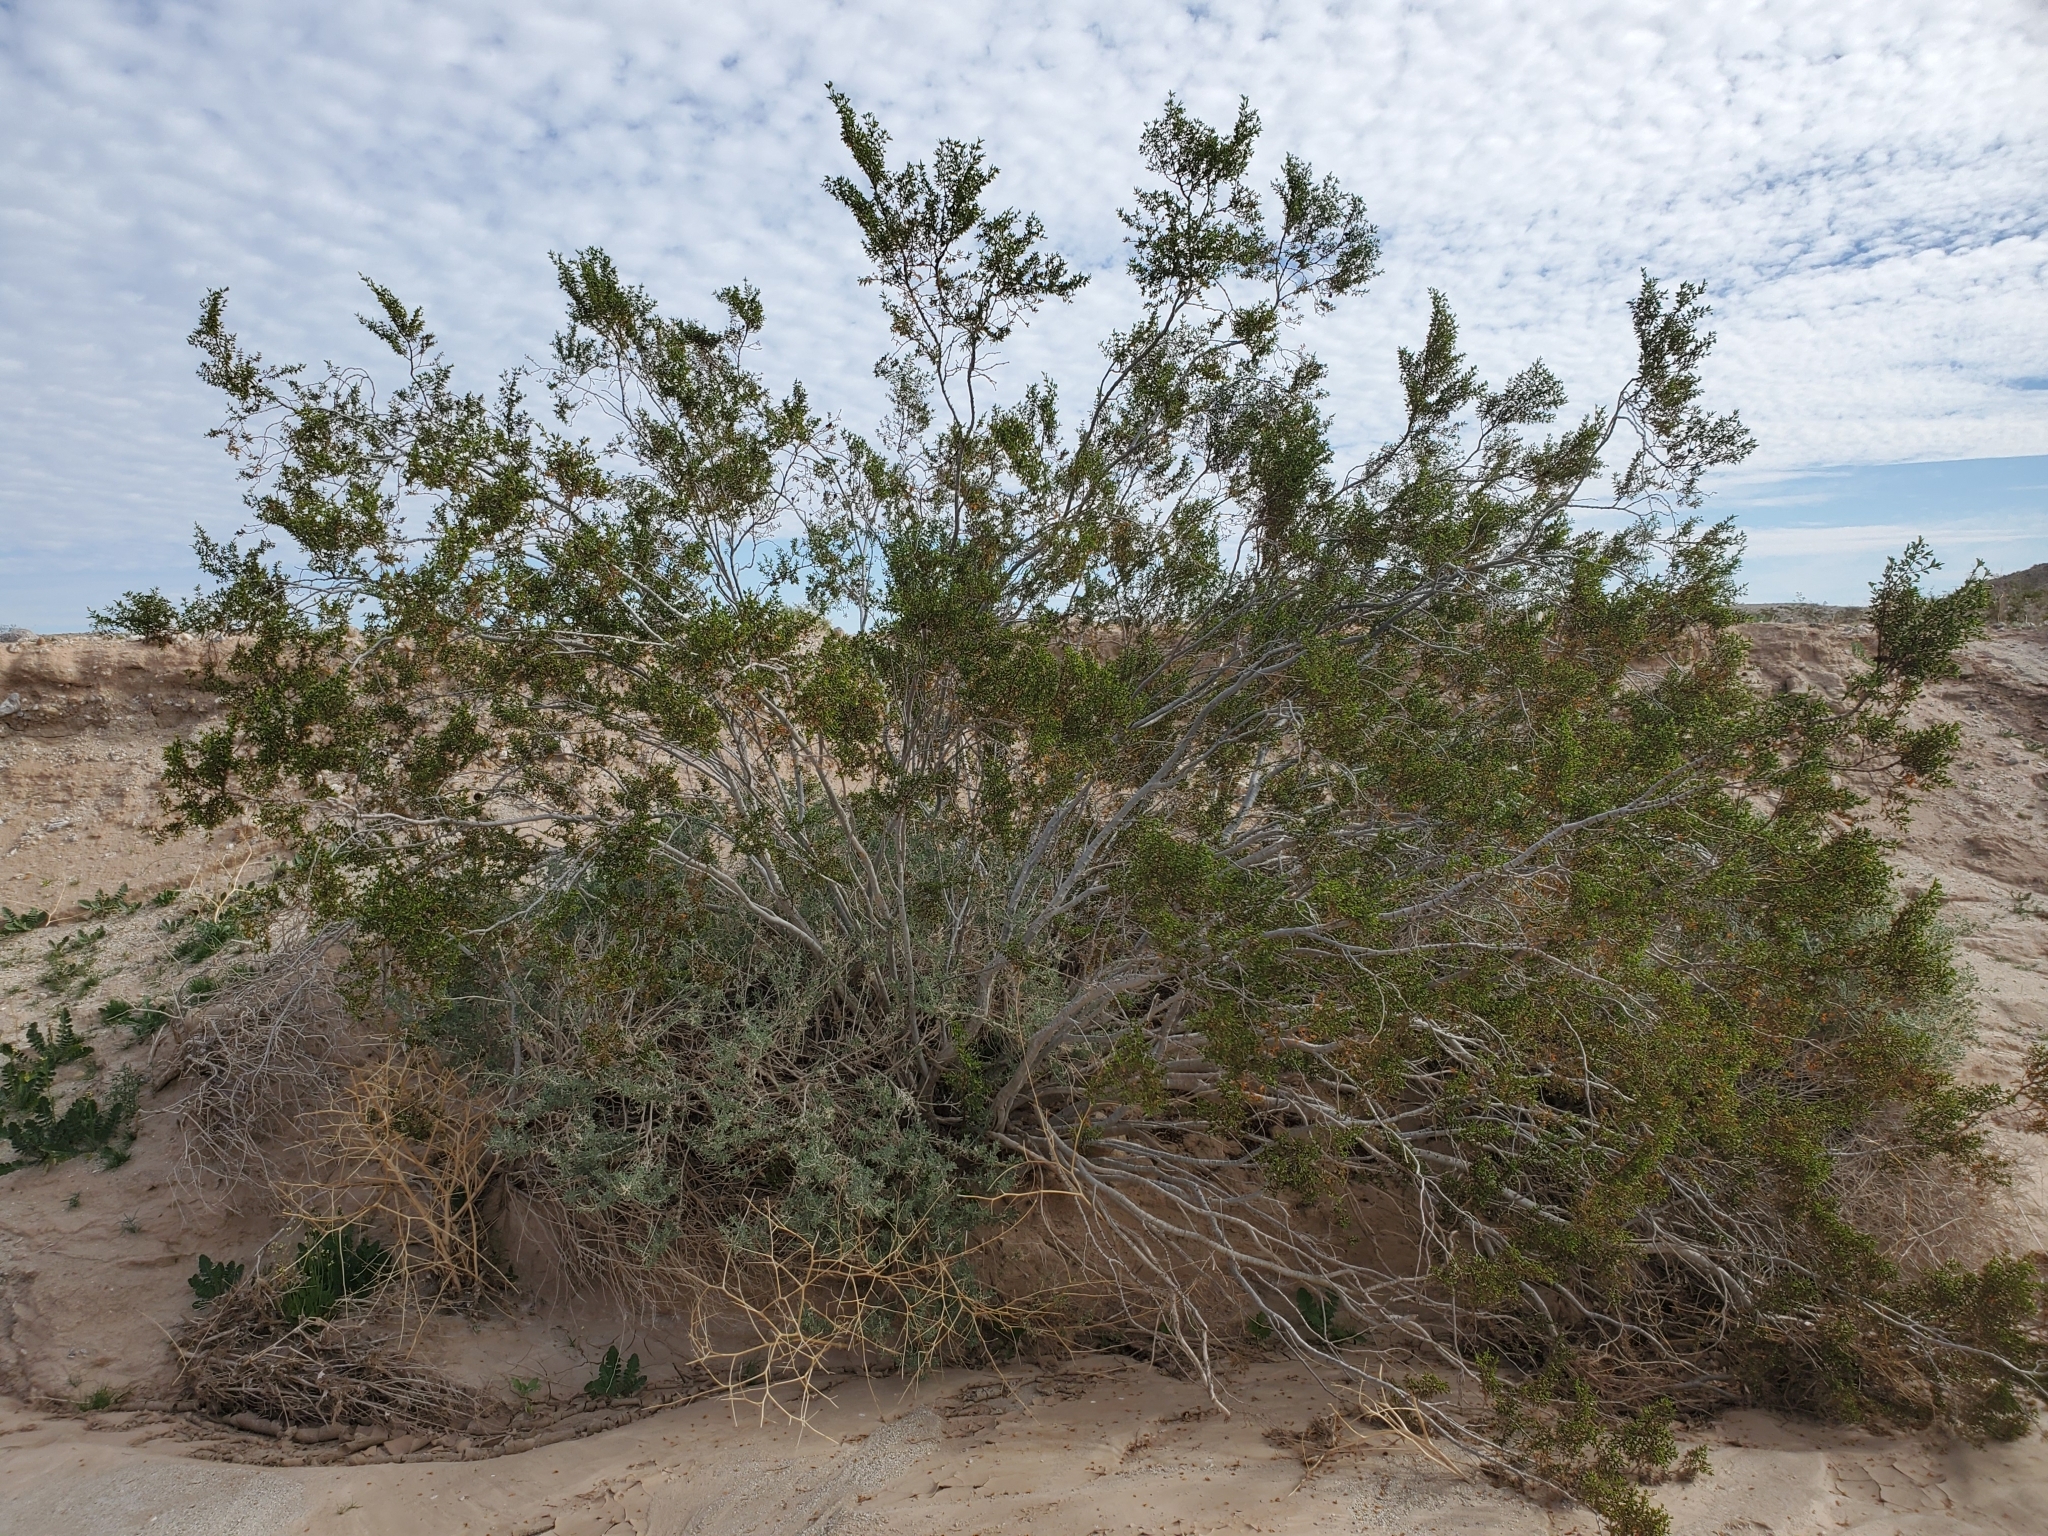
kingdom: Plantae
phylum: Tracheophyta
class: Magnoliopsida
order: Zygophyllales
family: Zygophyllaceae
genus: Larrea
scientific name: Larrea tridentata
